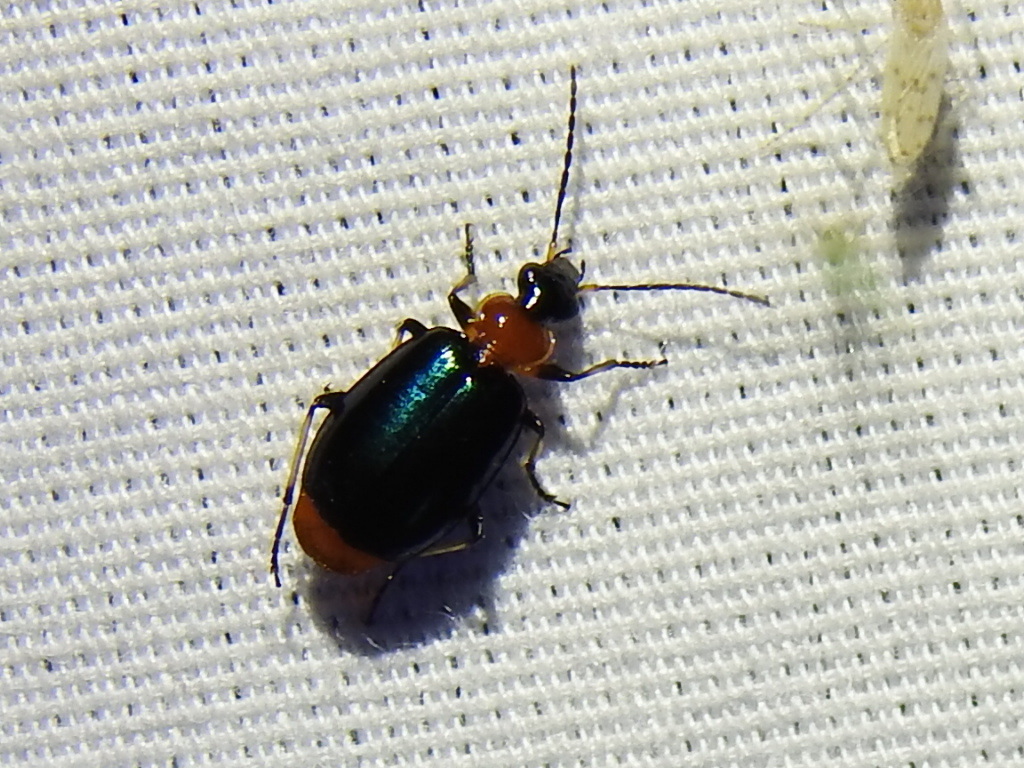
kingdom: Animalia
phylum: Arthropoda
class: Insecta
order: Coleoptera
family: Carabidae
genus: Lebia
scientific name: Lebia viridipennis
